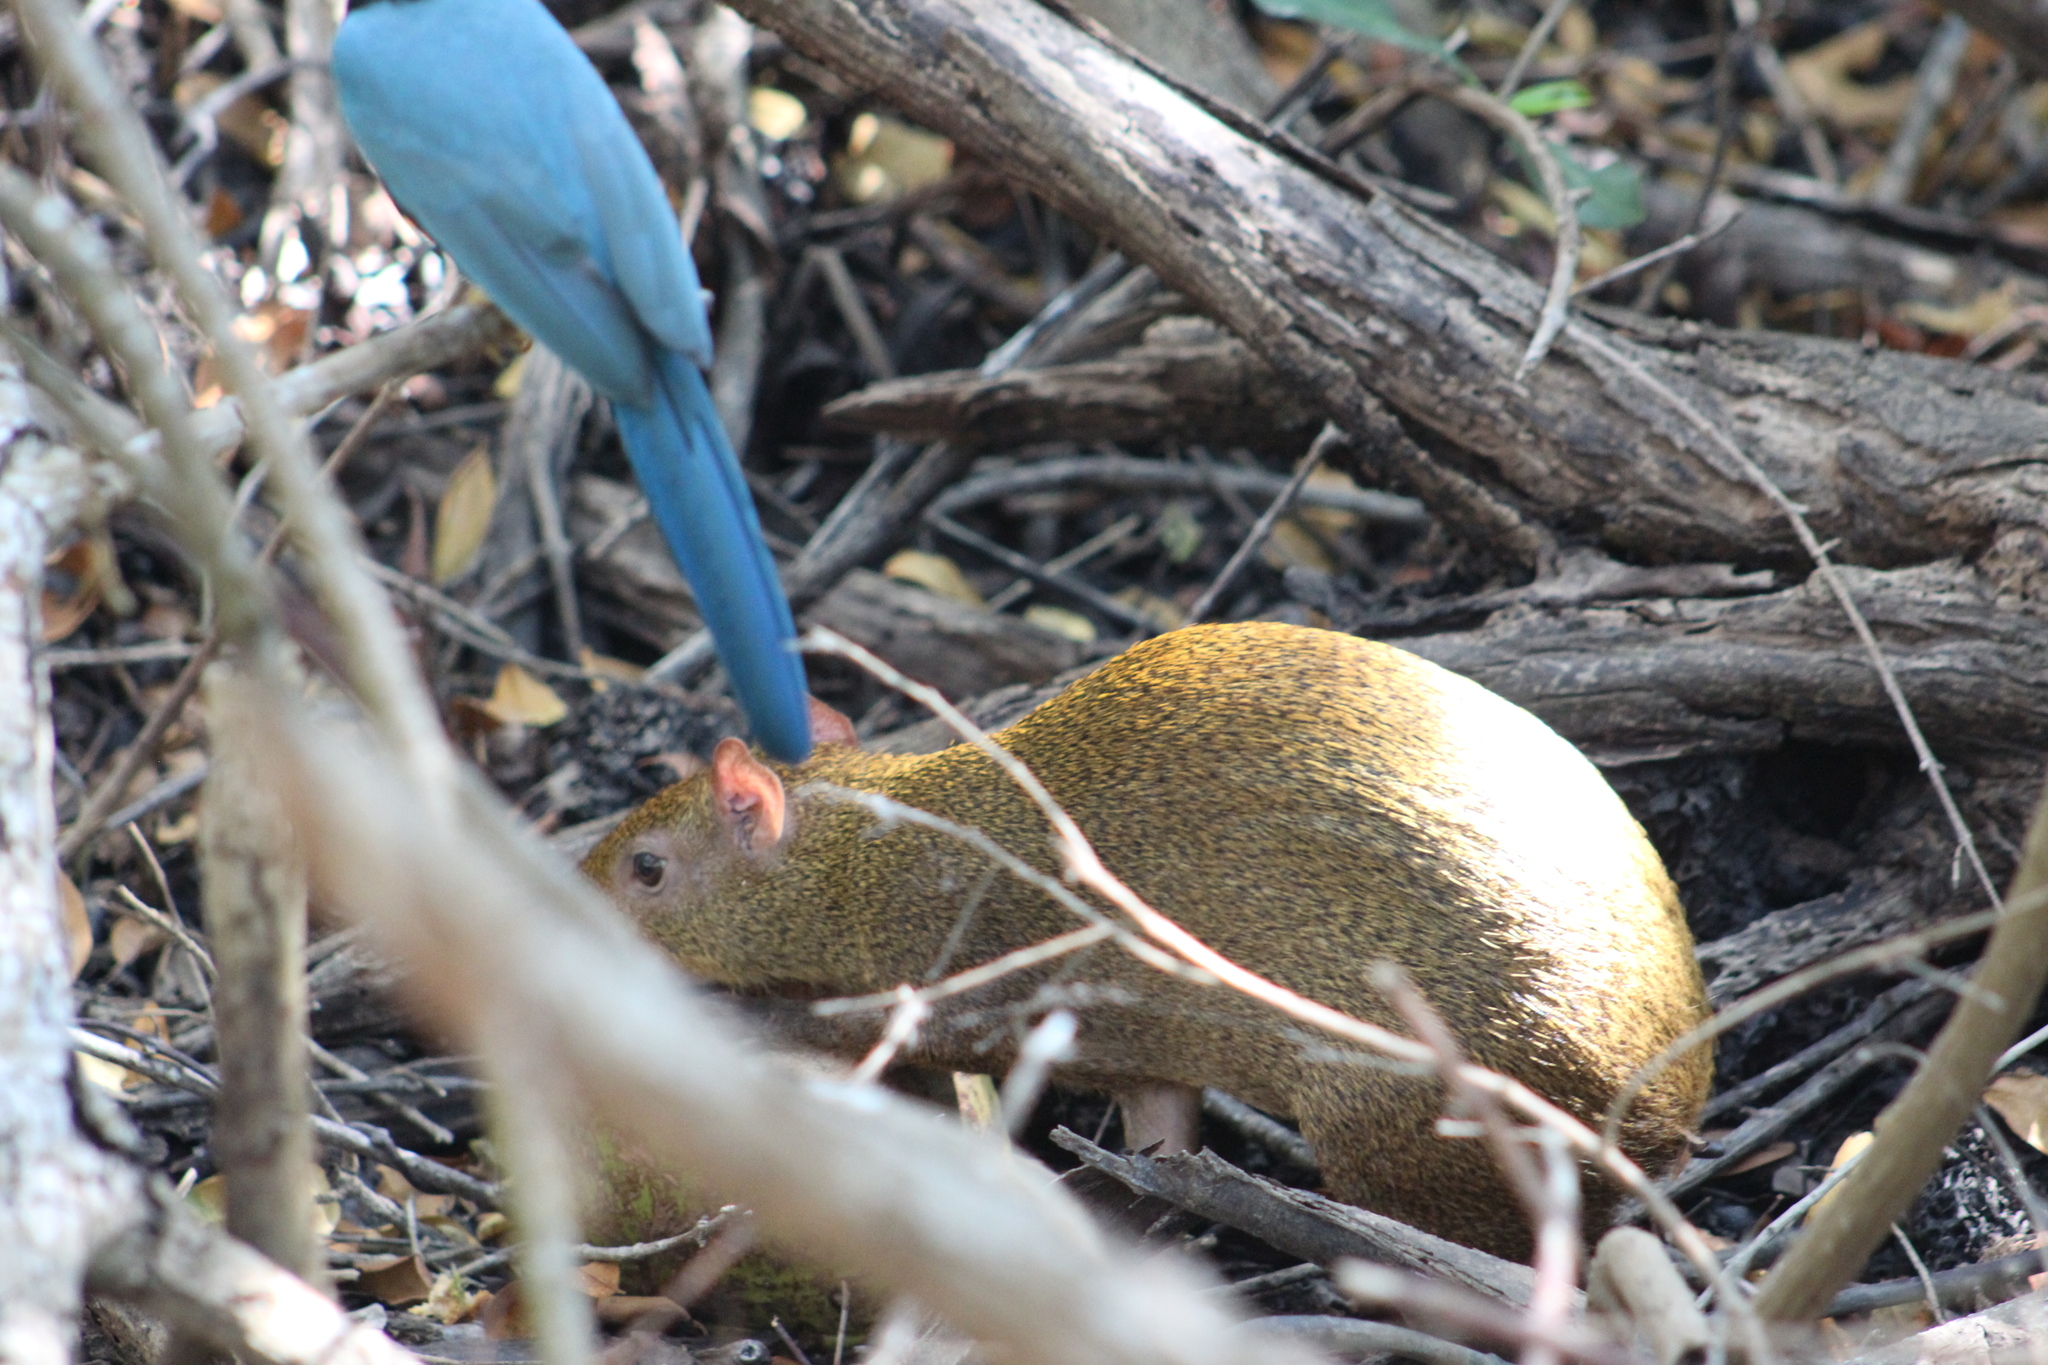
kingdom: Animalia
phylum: Chordata
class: Mammalia
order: Rodentia
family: Dasyproctidae
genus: Dasyprocta
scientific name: Dasyprocta punctata
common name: Central american agouti
